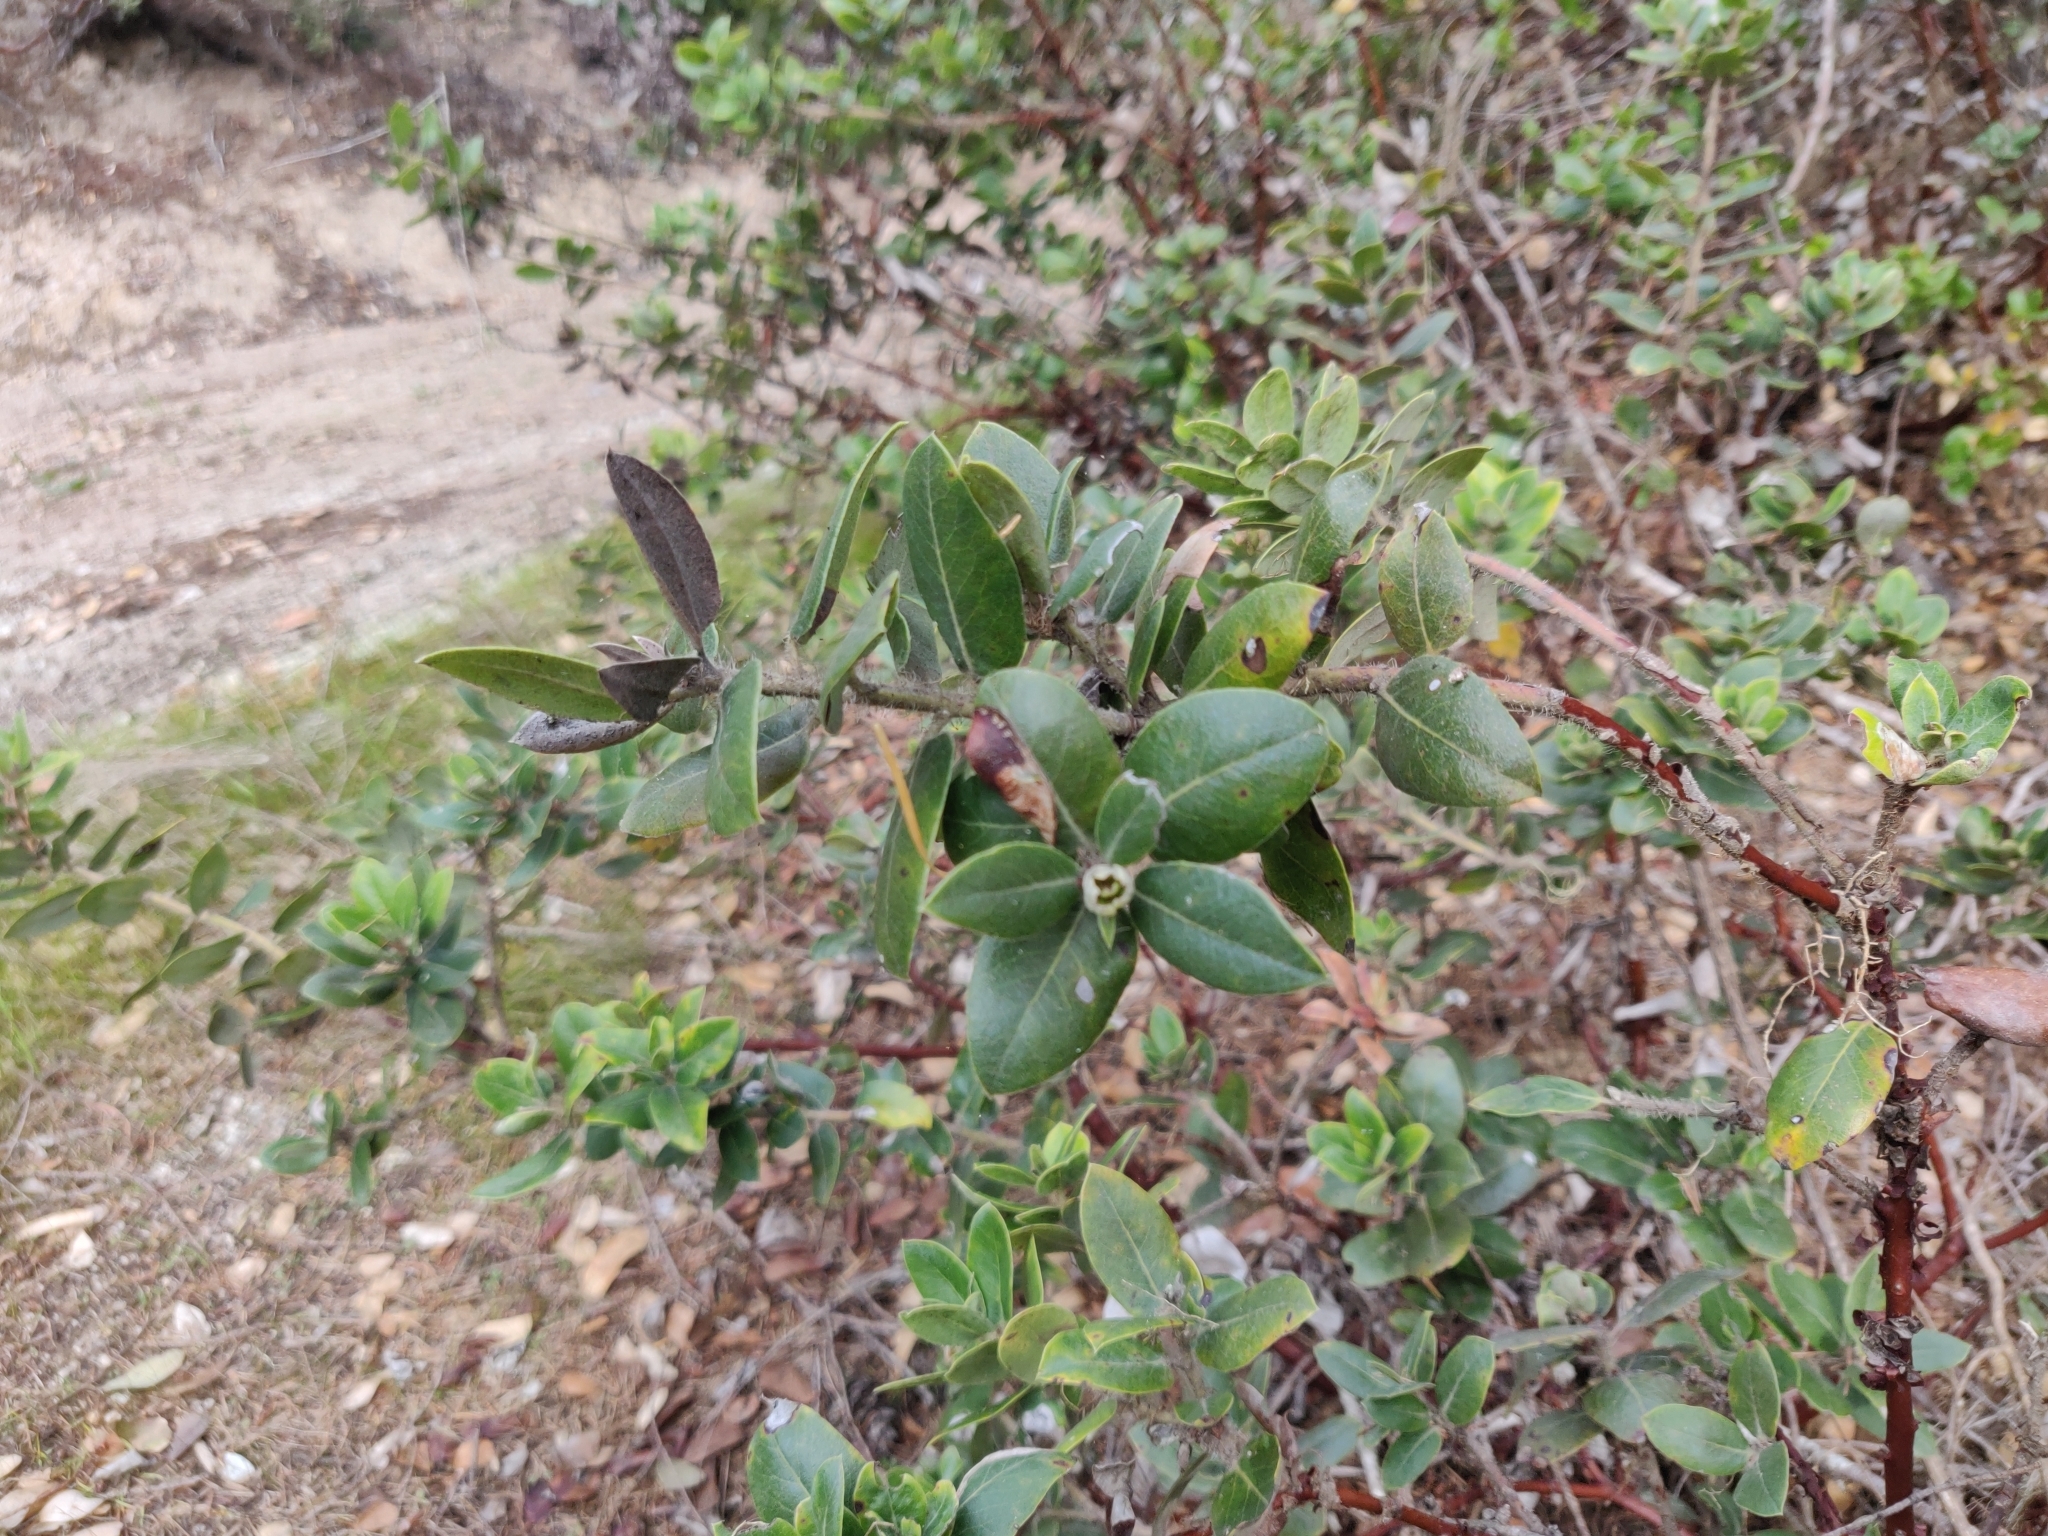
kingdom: Plantae
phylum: Tracheophyta
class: Magnoliopsida
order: Ericales
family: Ericaceae
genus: Arctostaphylos
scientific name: Arctostaphylos crustacea
